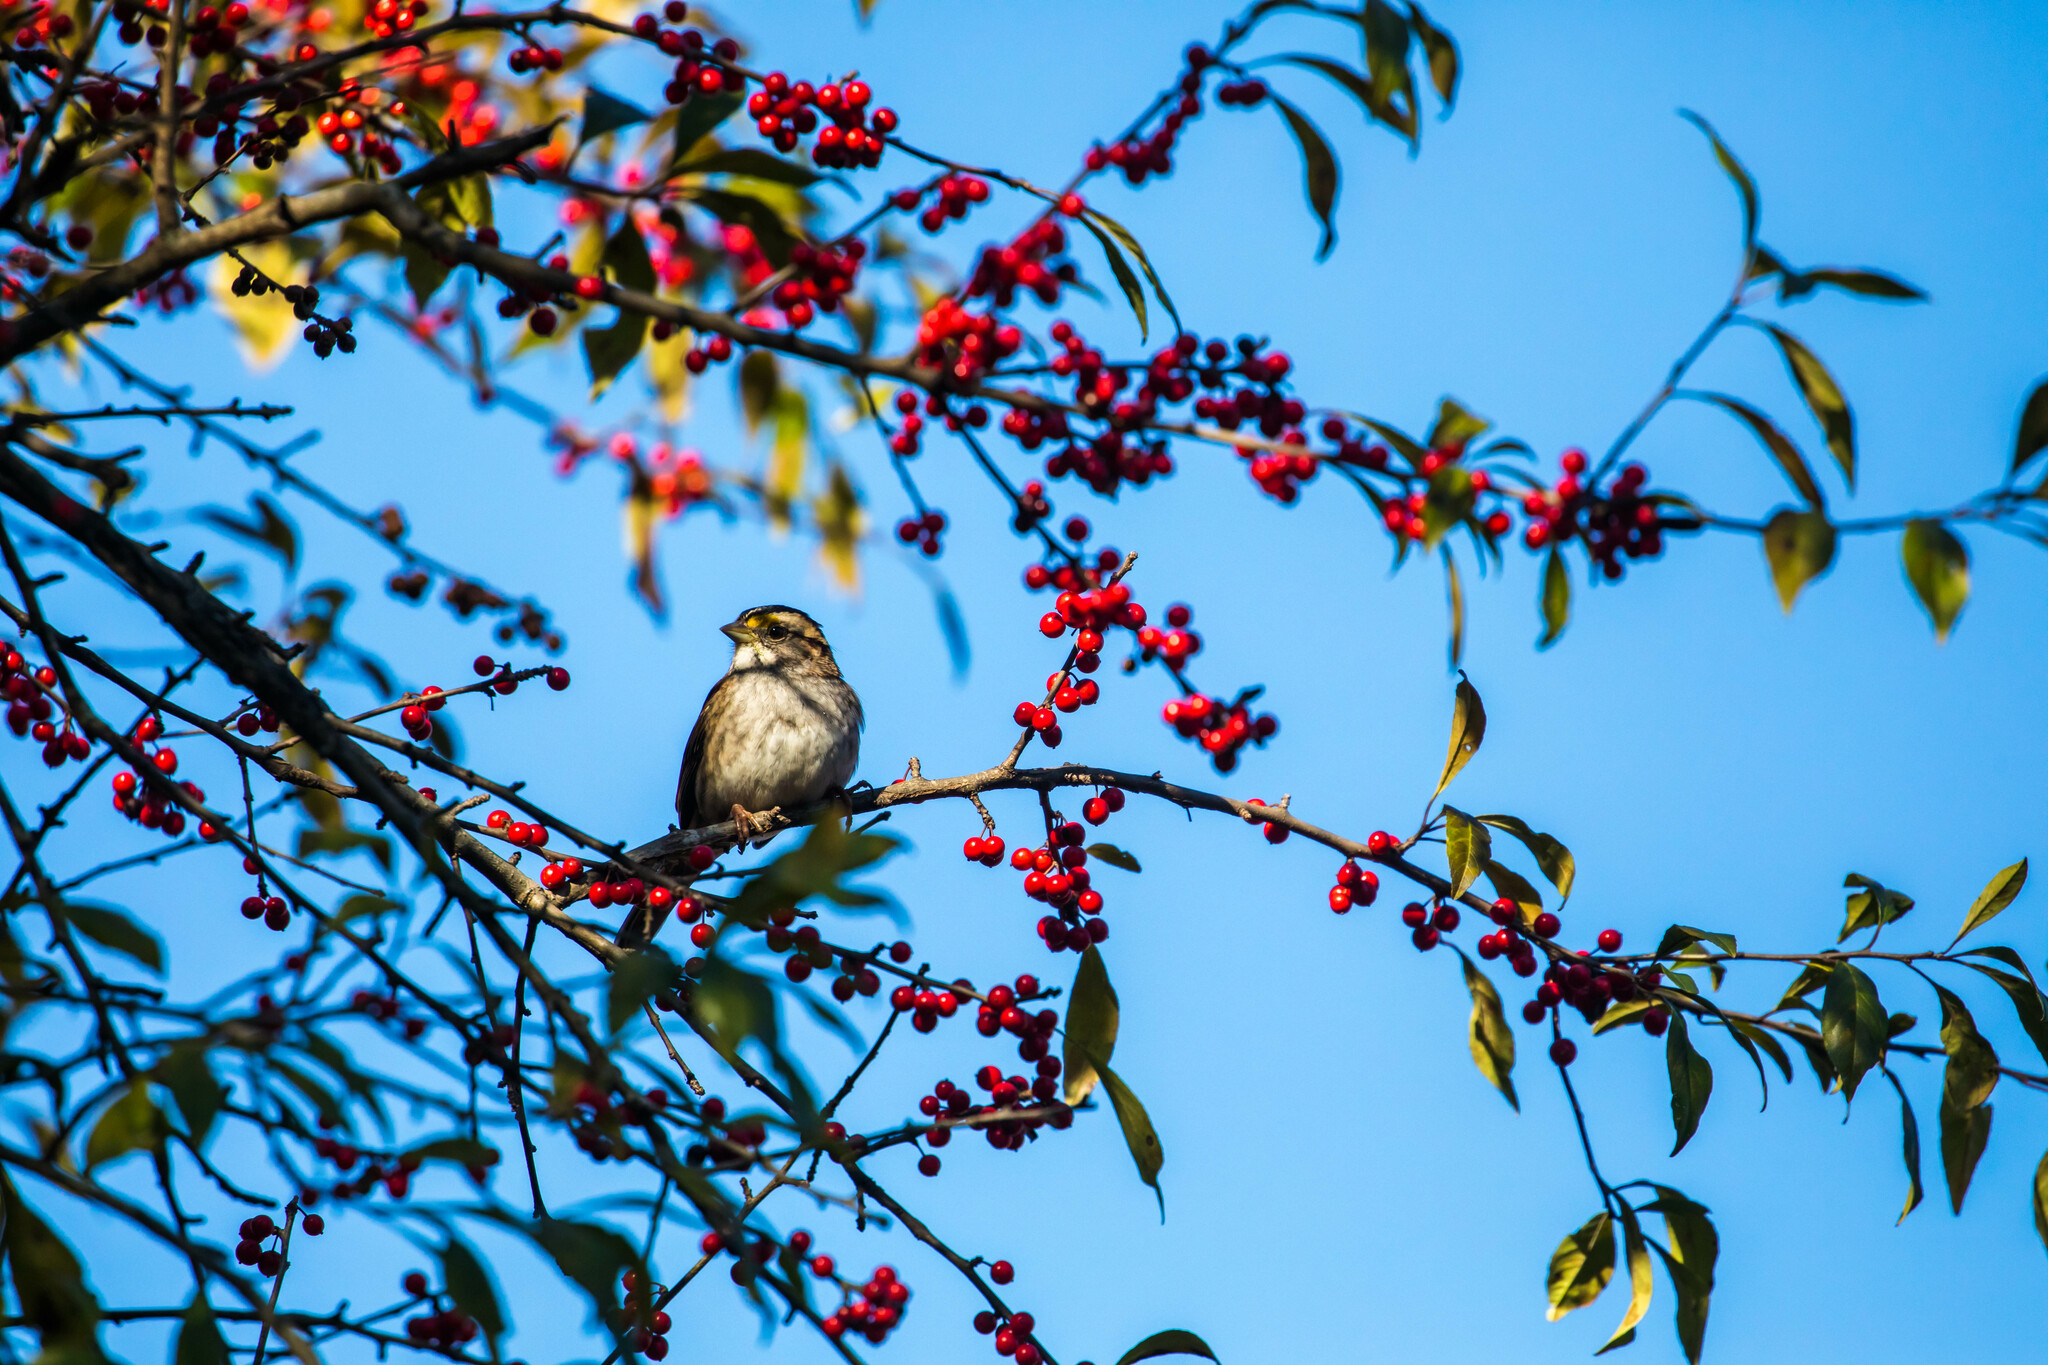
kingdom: Animalia
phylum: Chordata
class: Aves
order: Passeriformes
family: Passerellidae
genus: Zonotrichia
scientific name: Zonotrichia albicollis
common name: White-throated sparrow
